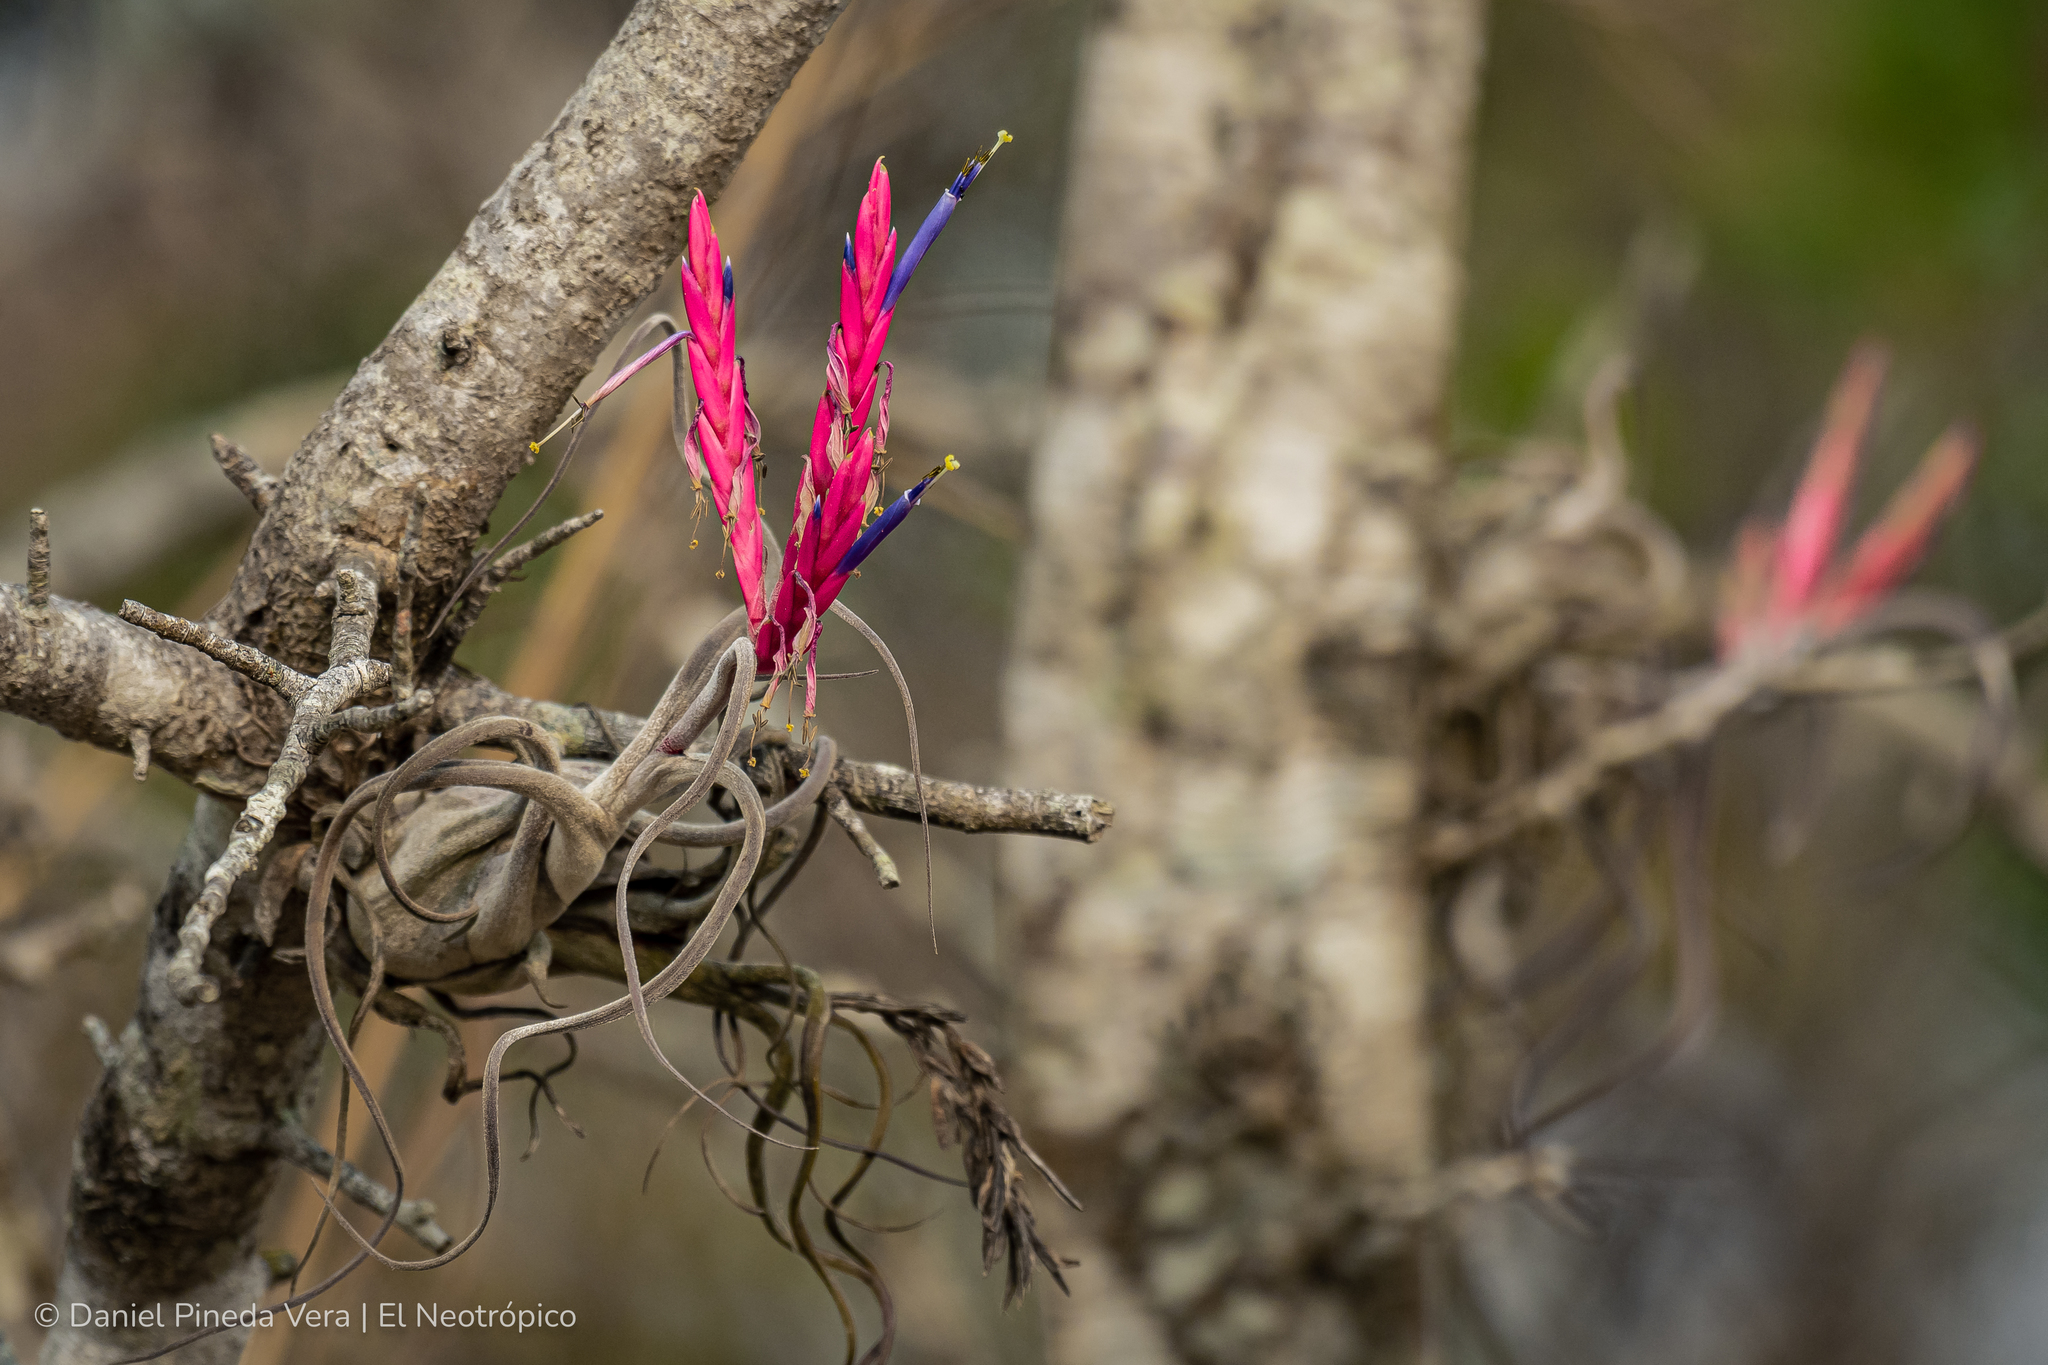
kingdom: Plantae
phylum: Tracheophyta
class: Liliopsida
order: Poales
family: Bromeliaceae
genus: Tillandsia
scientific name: Tillandsia caput-medusae
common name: Octopus plant
